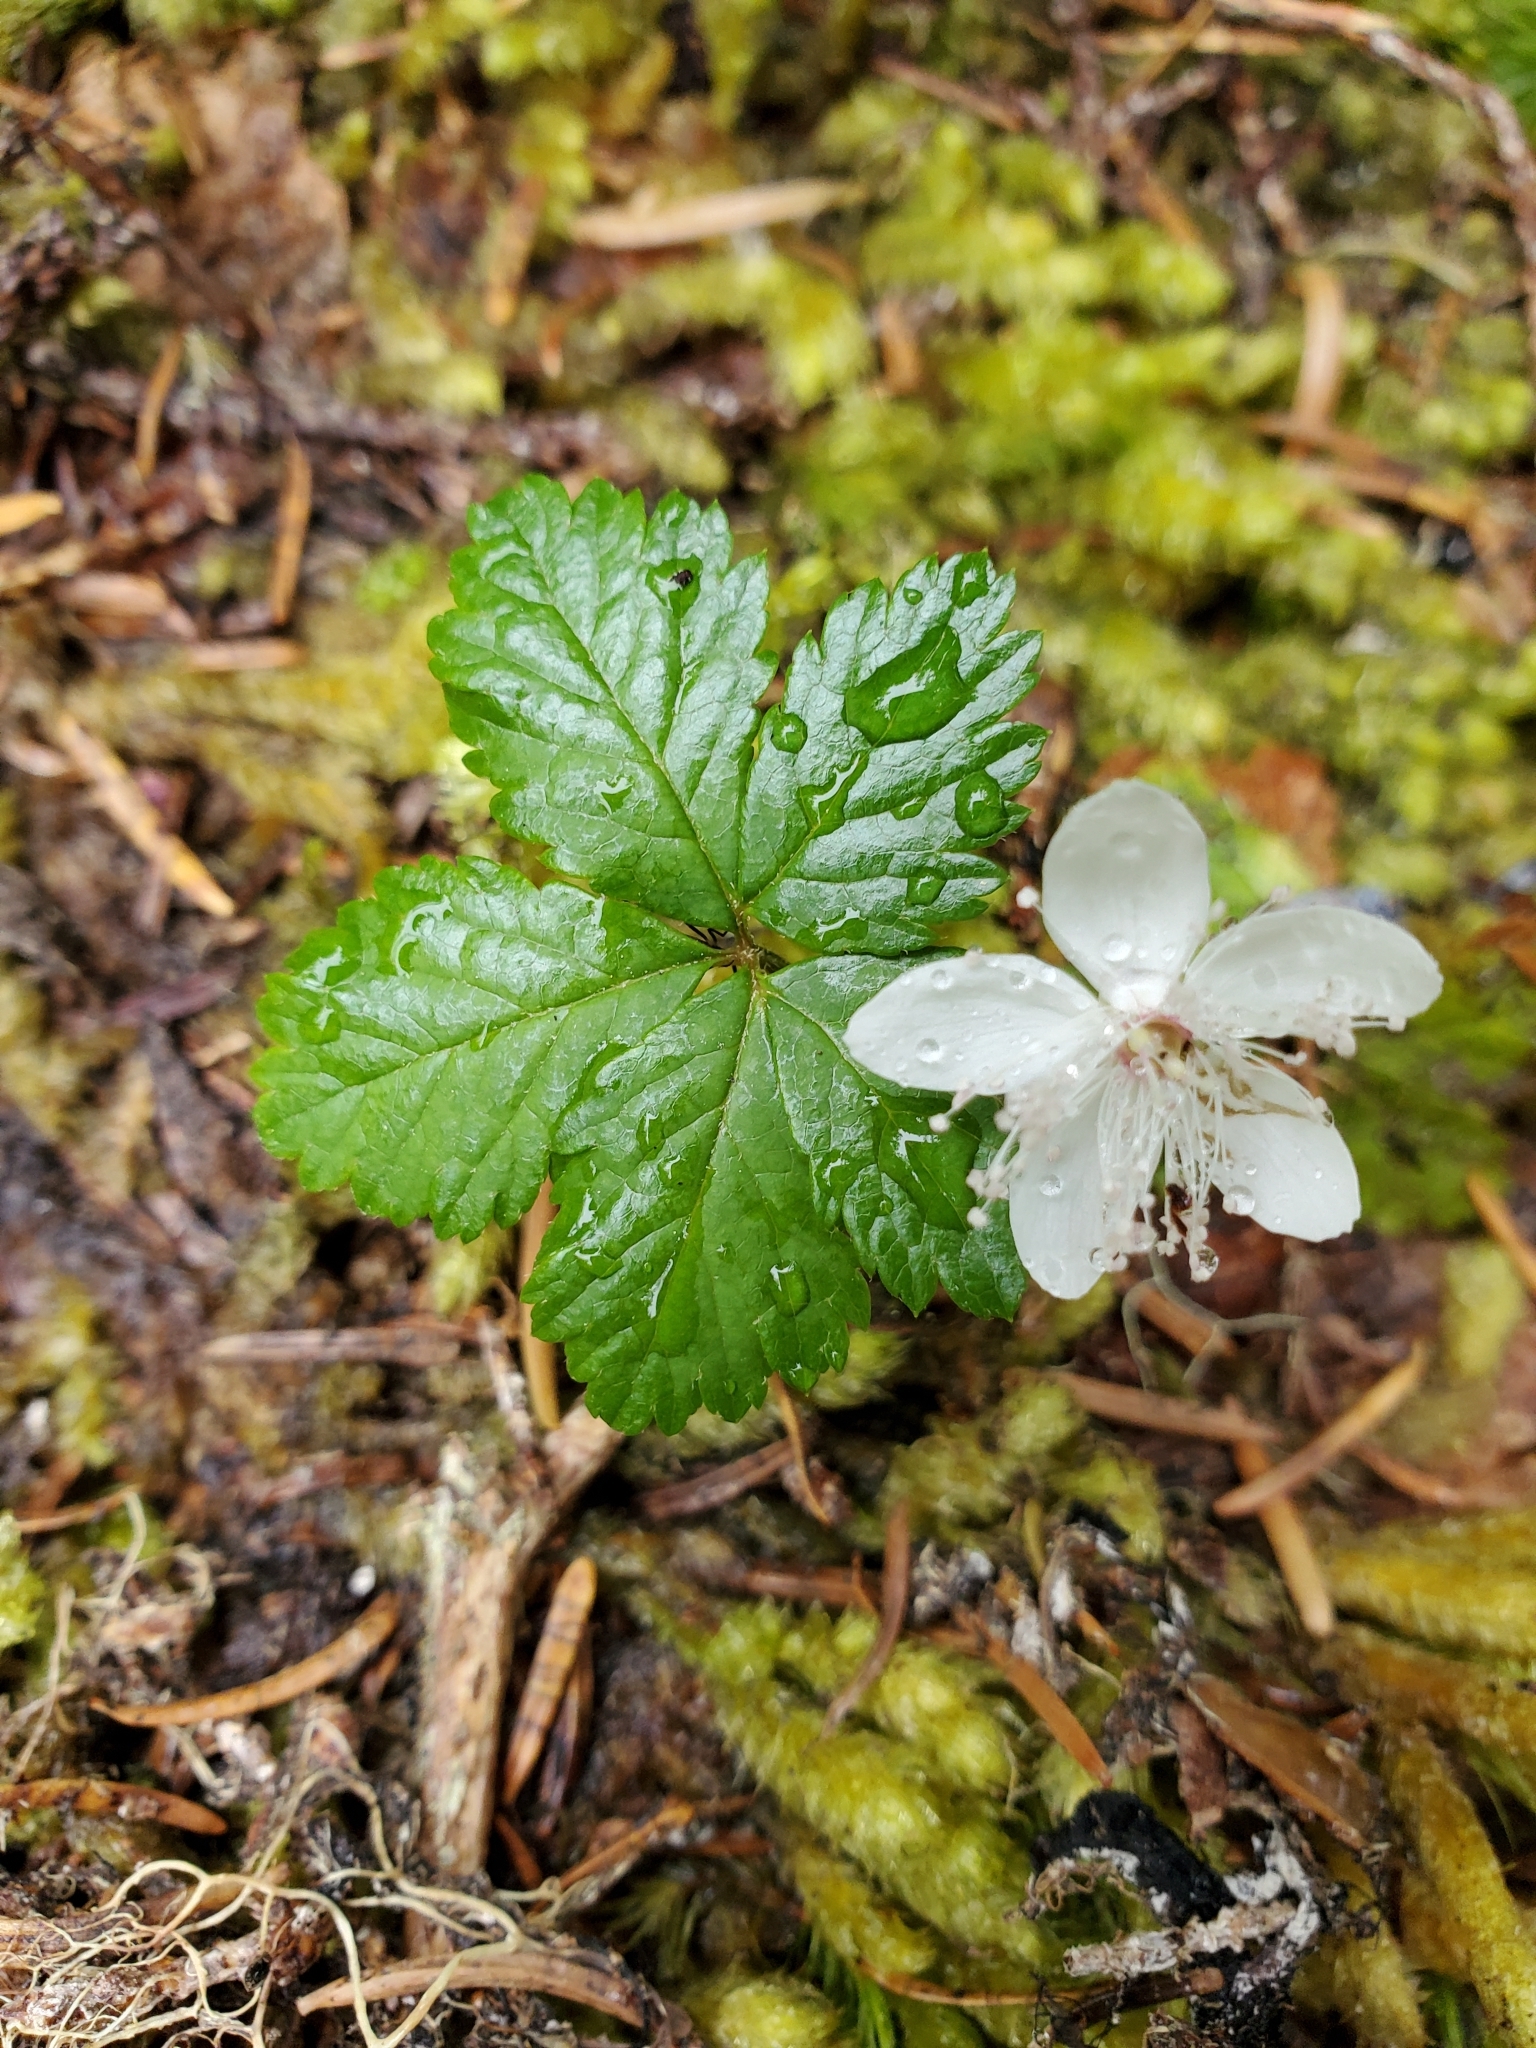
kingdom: Plantae
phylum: Tracheophyta
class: Magnoliopsida
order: Rosales
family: Rosaceae
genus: Rubus
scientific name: Rubus pedatus
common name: Creeping raspberry
